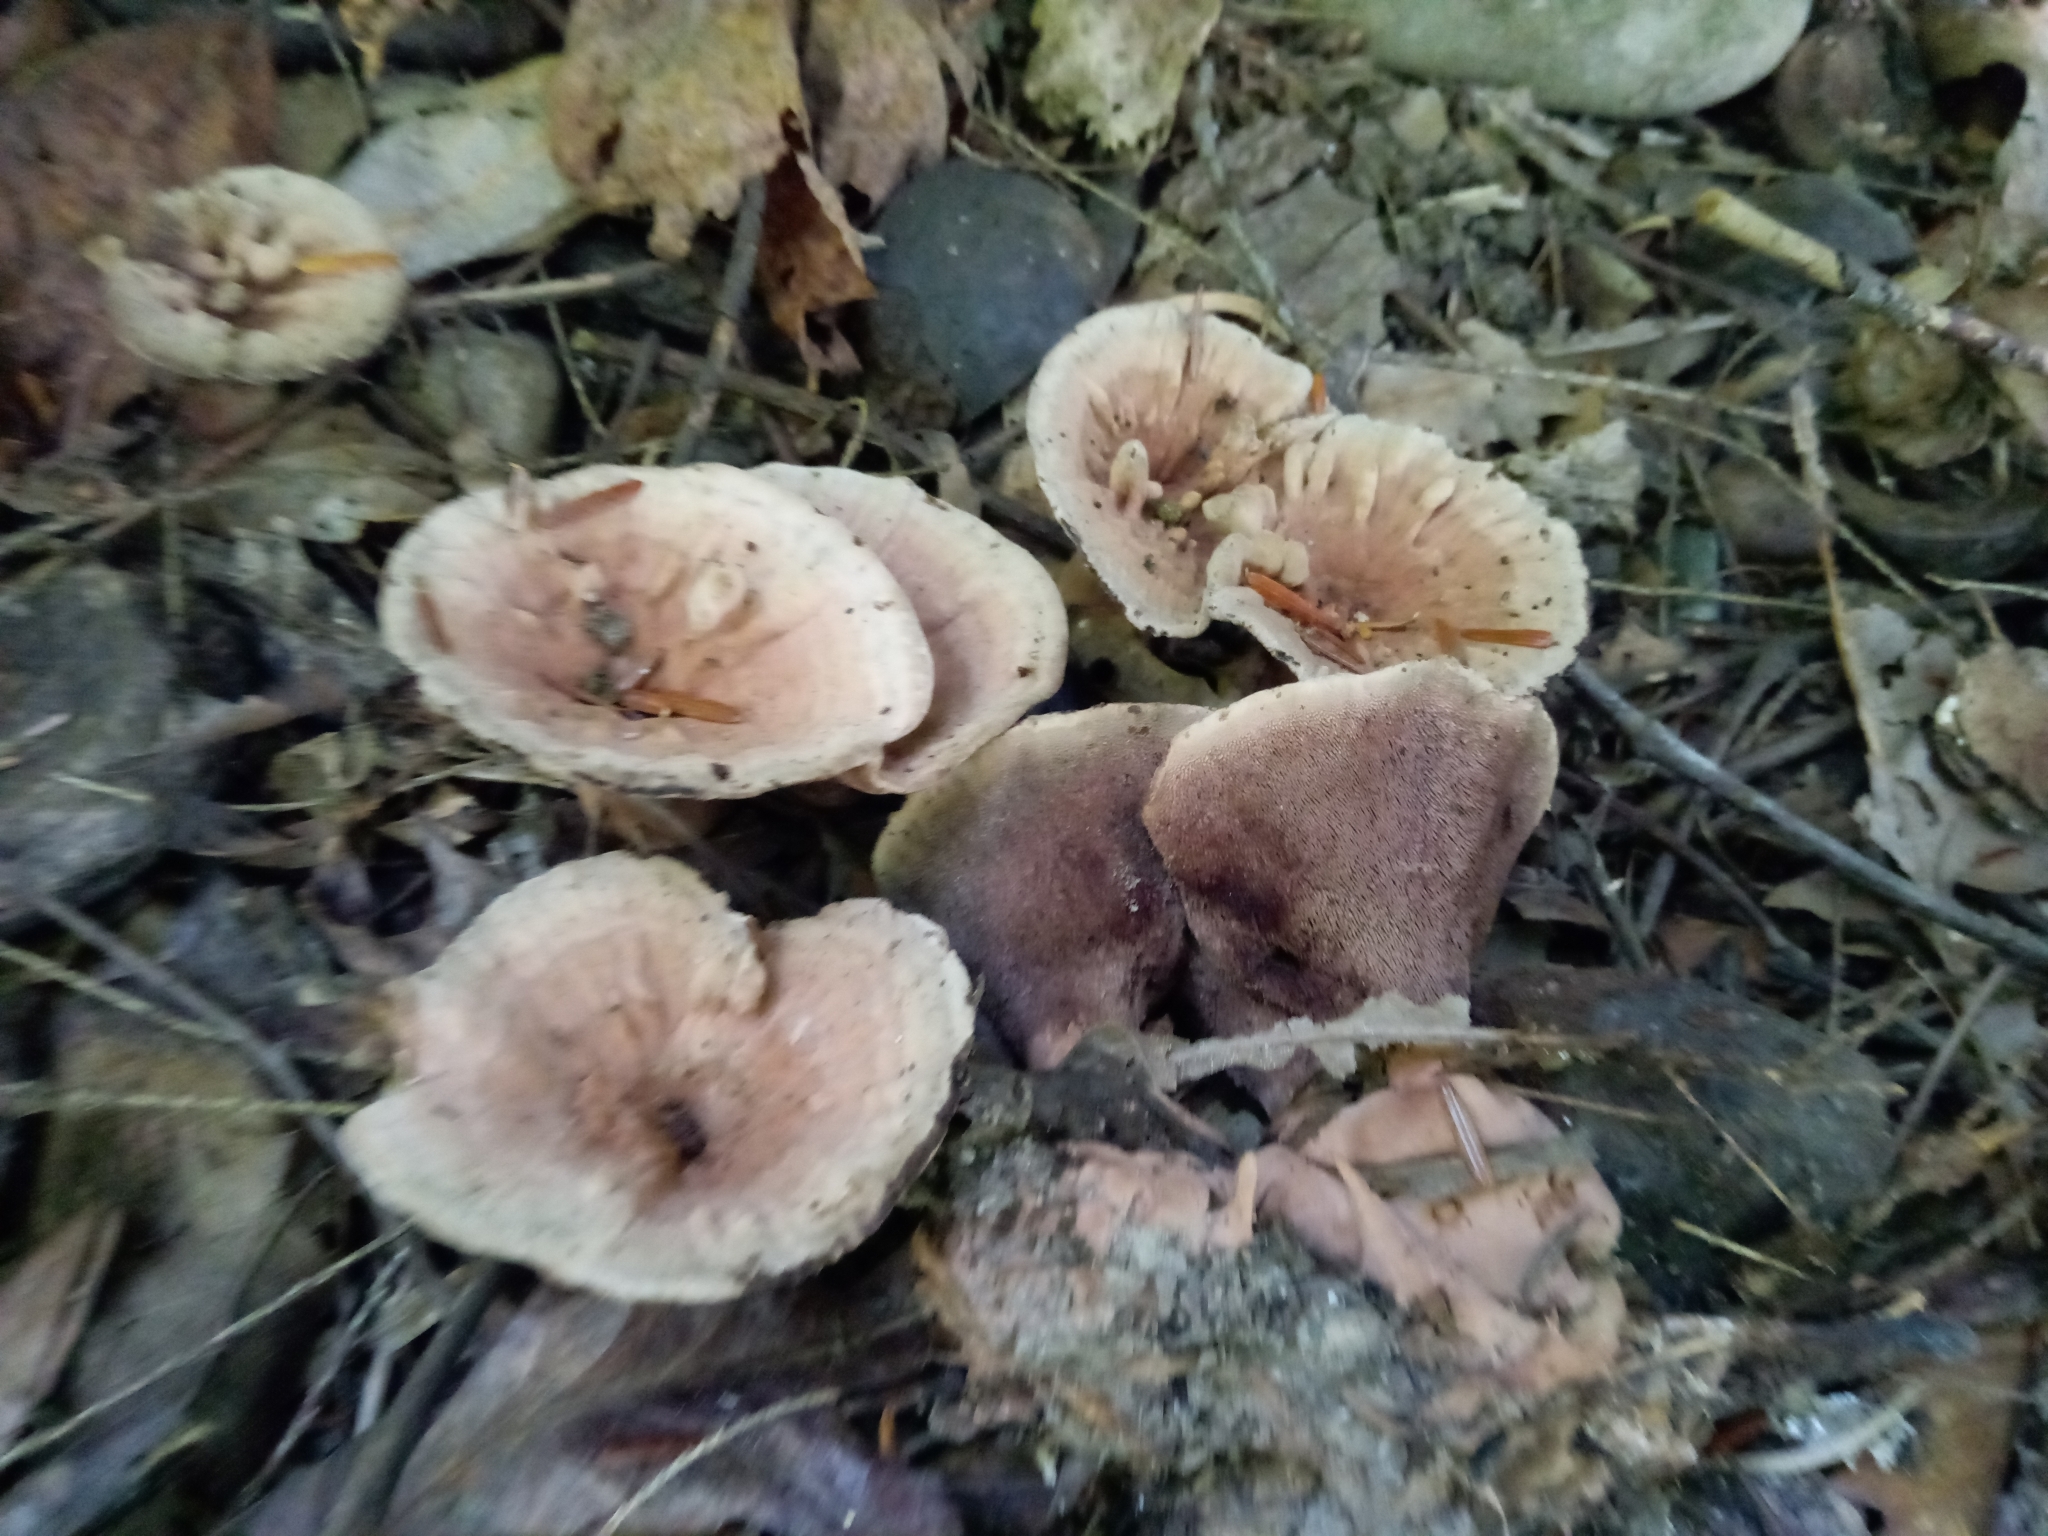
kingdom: Fungi
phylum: Basidiomycota
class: Agaricomycetes
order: Thelephorales
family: Bankeraceae
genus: Hydnellum
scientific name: Hydnellum spongiosipes
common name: Velvet tooth
